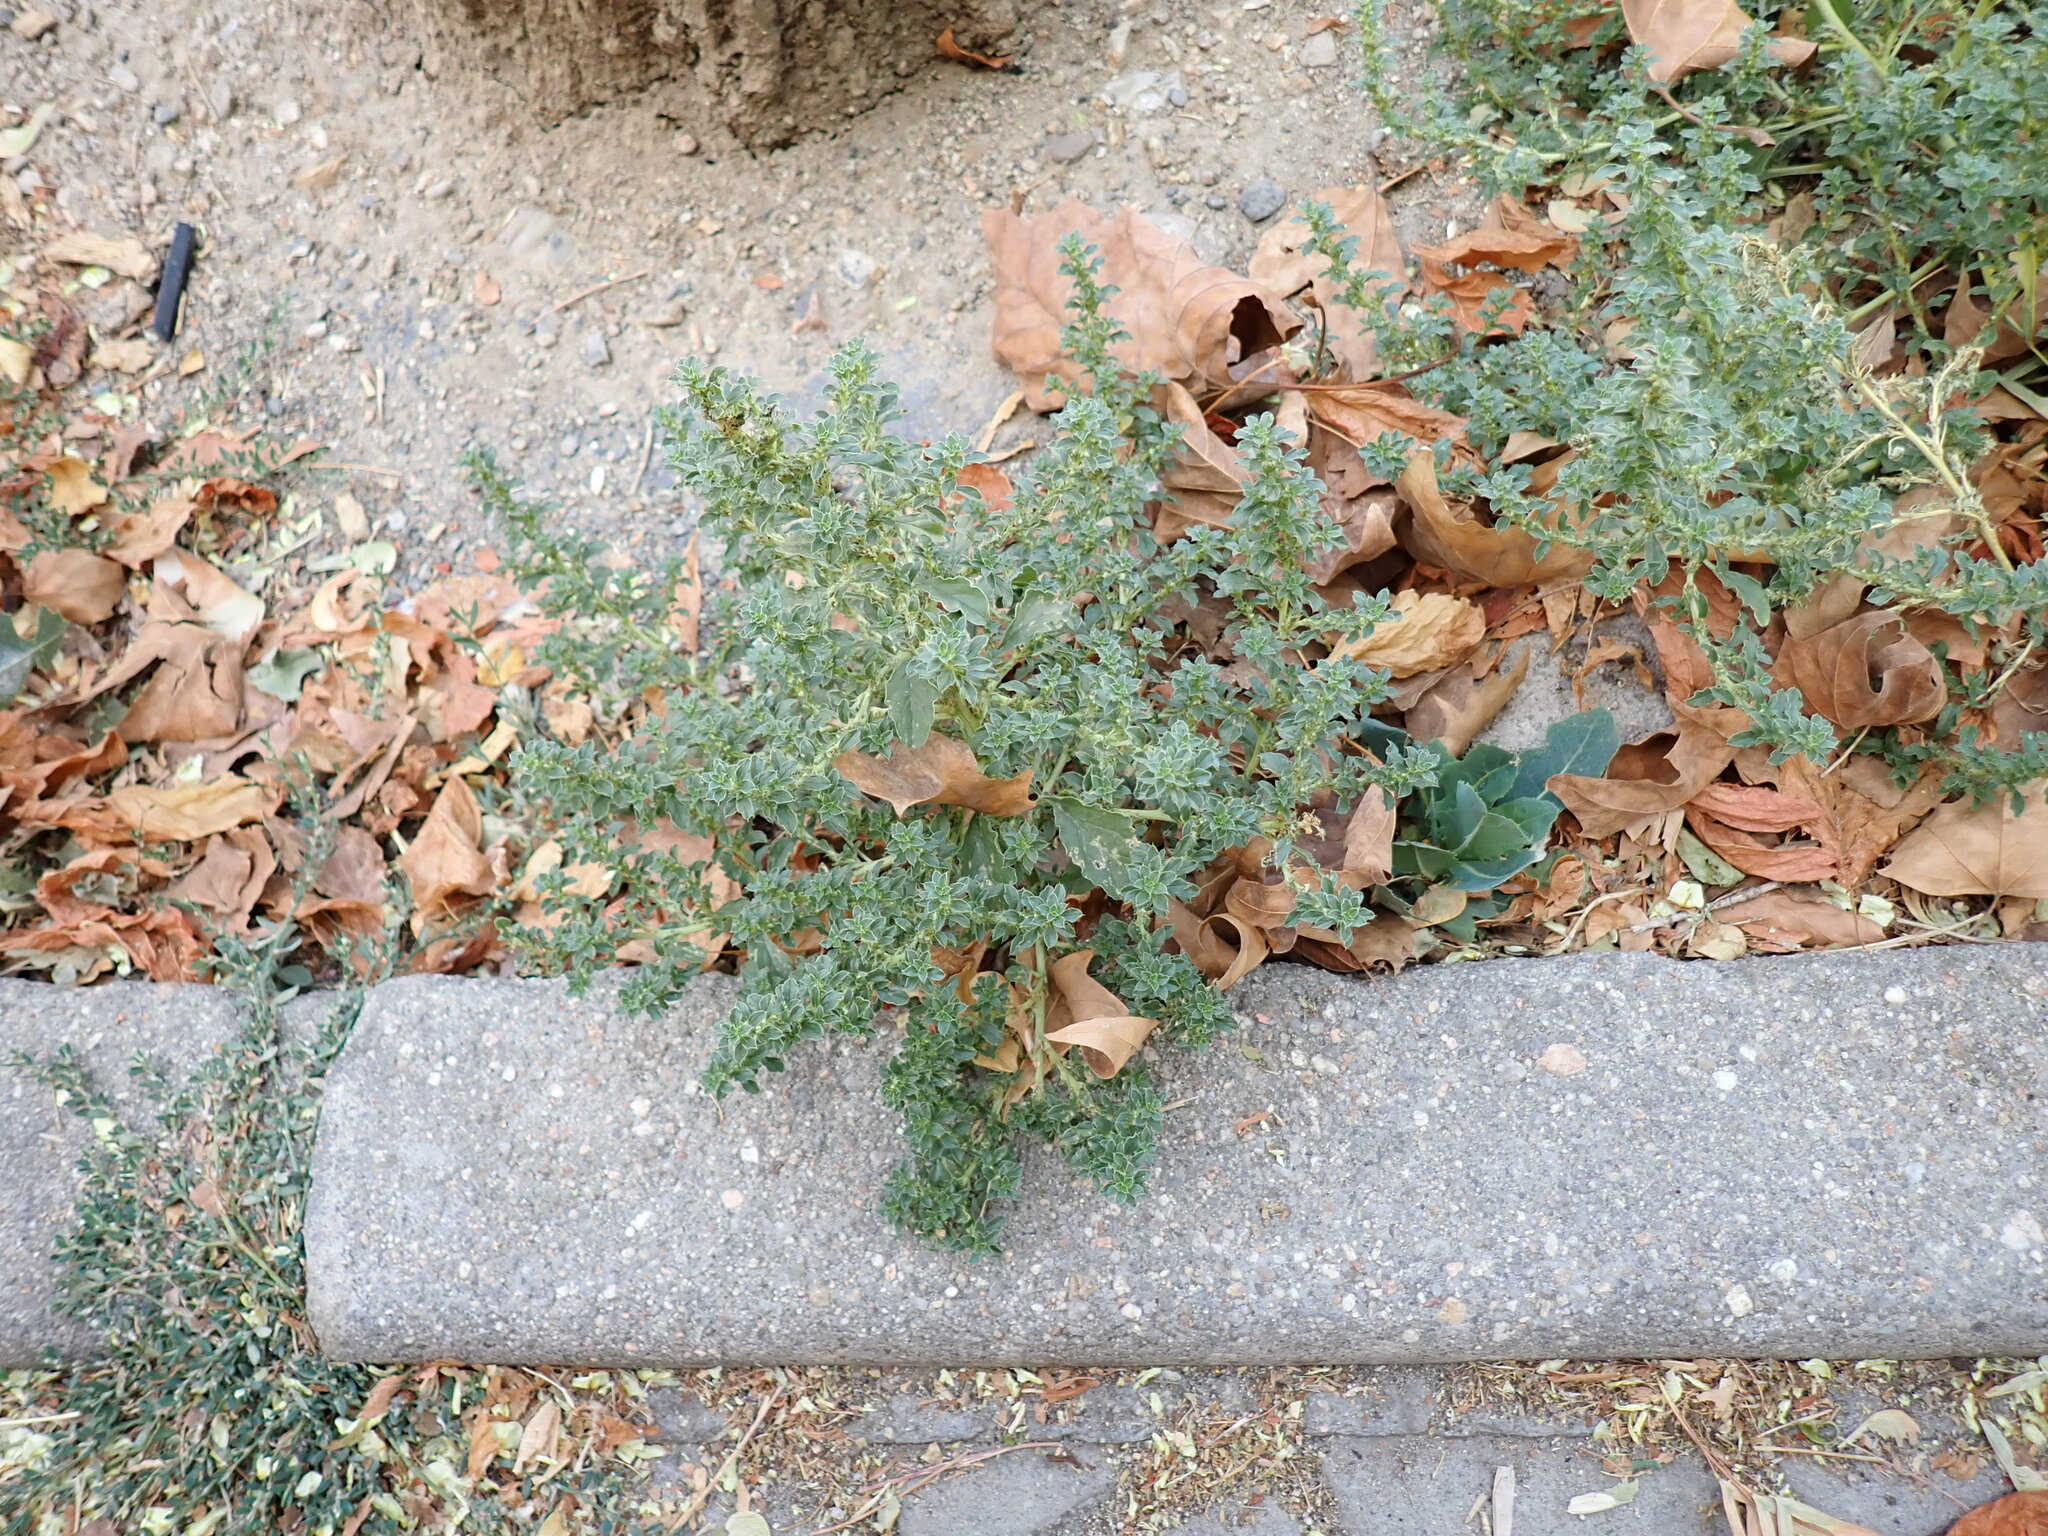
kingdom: Plantae
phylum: Tracheophyta
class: Magnoliopsida
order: Caryophyllales
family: Amaranthaceae
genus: Amaranthus
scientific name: Amaranthus albus
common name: White pigweed
